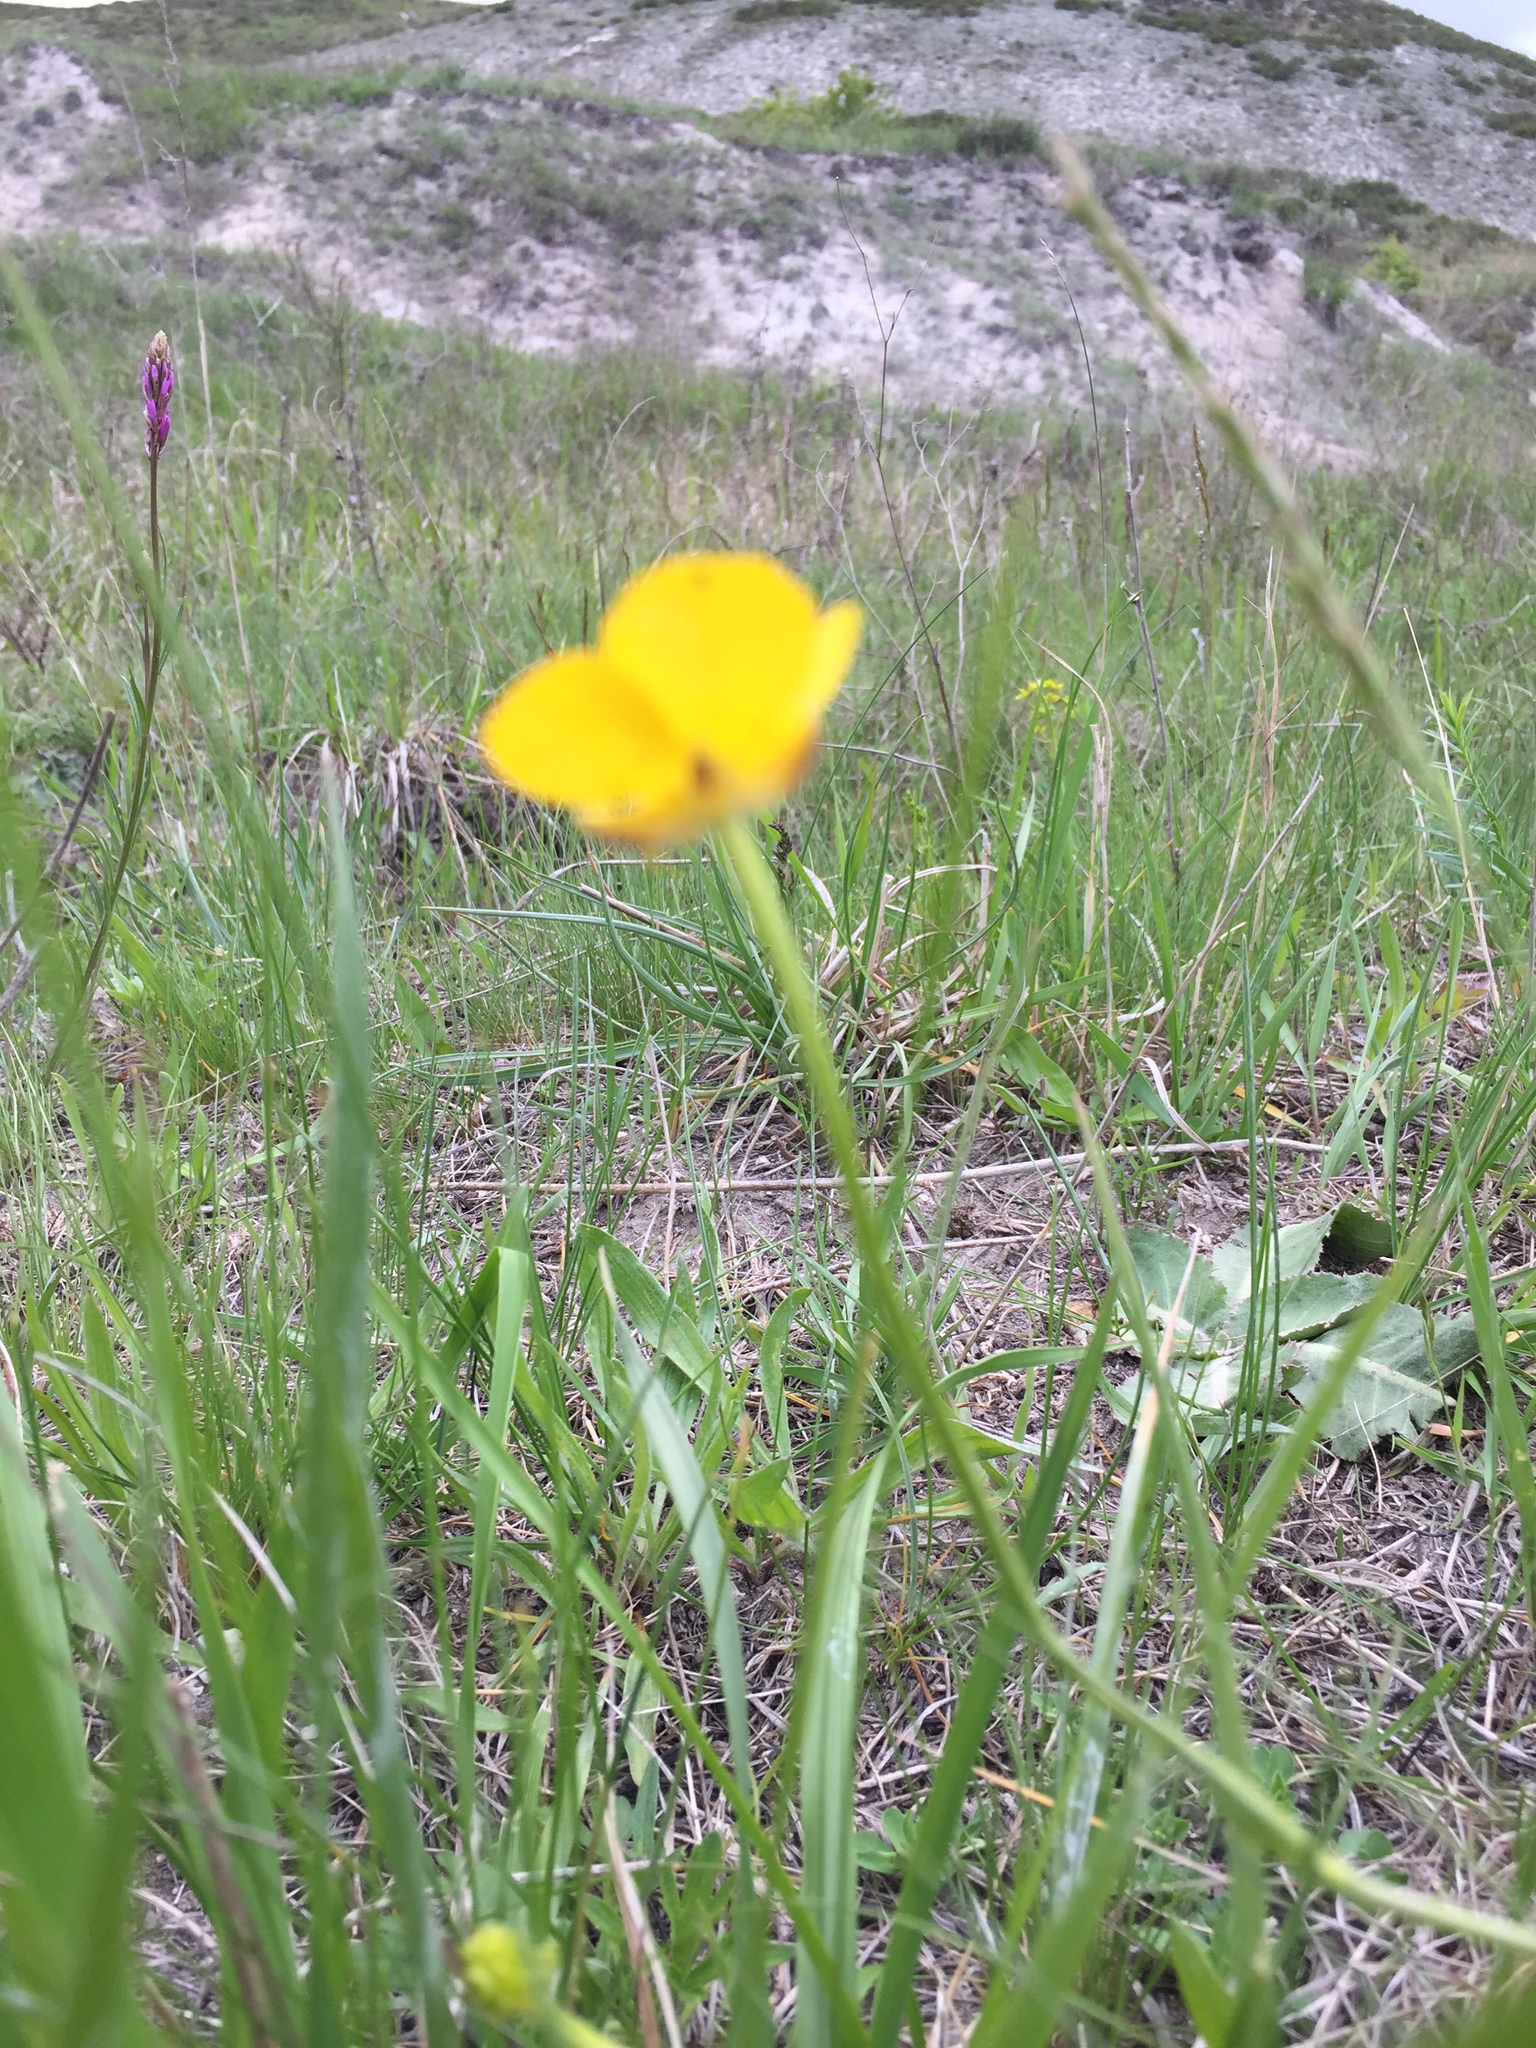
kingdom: Plantae
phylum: Tracheophyta
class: Magnoliopsida
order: Ranunculales
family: Ranunculaceae
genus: Ranunculus
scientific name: Ranunculus polyanthemos
